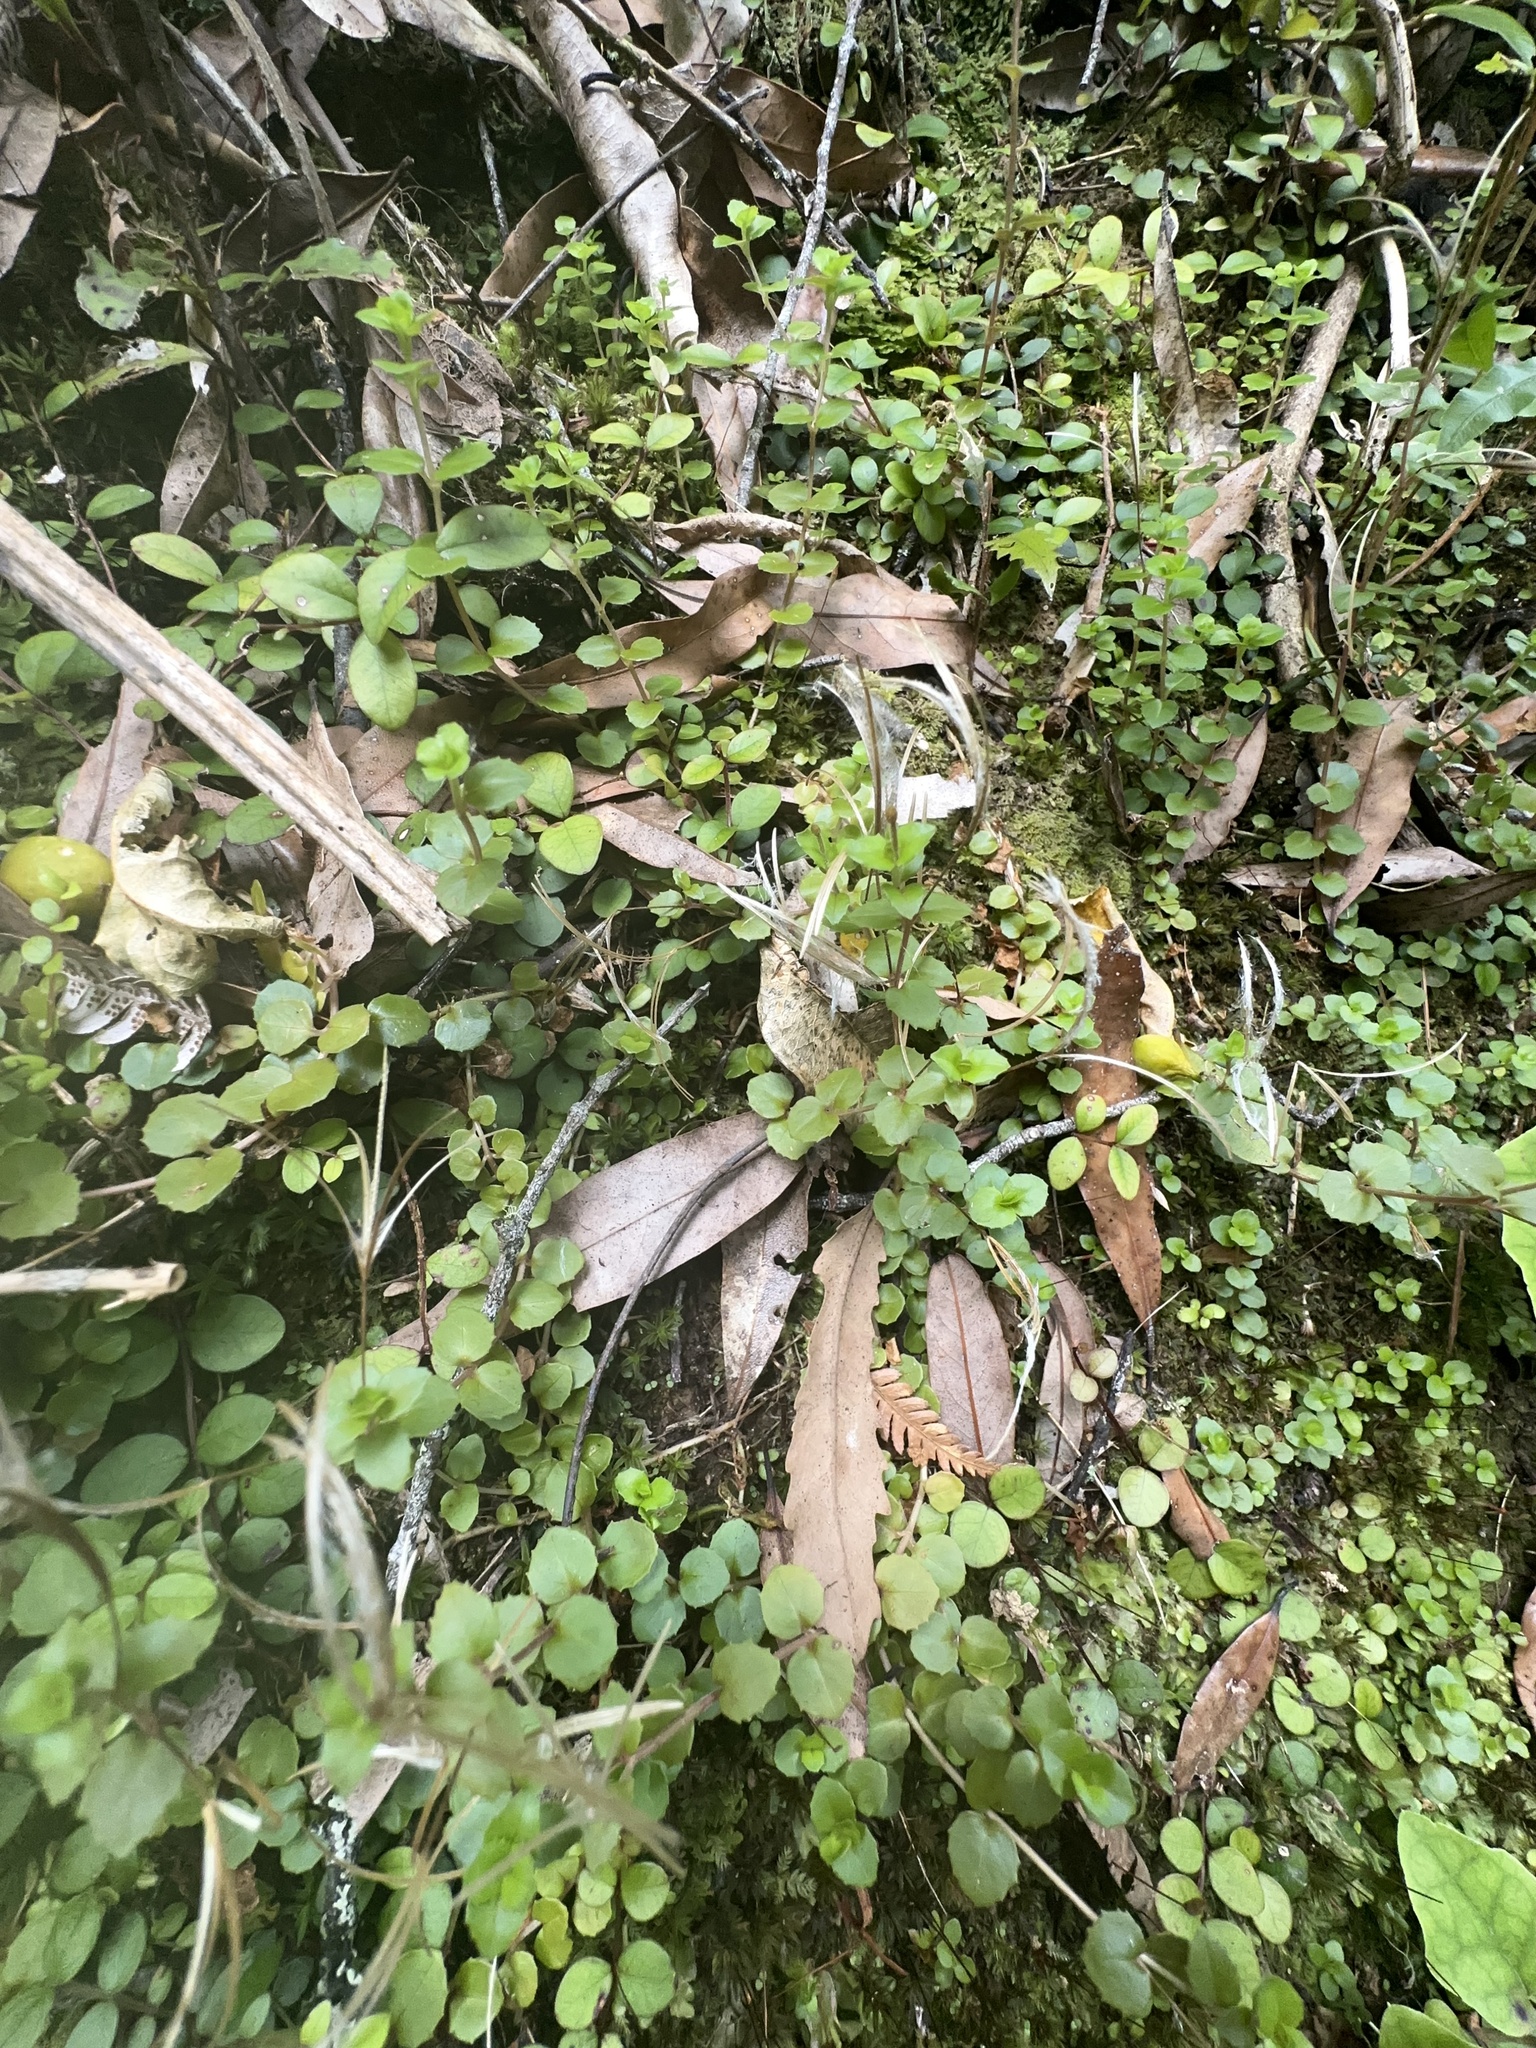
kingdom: Plantae
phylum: Tracheophyta
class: Magnoliopsida
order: Myrtales
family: Onagraceae
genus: Epilobium
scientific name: Epilobium rotundifolium
